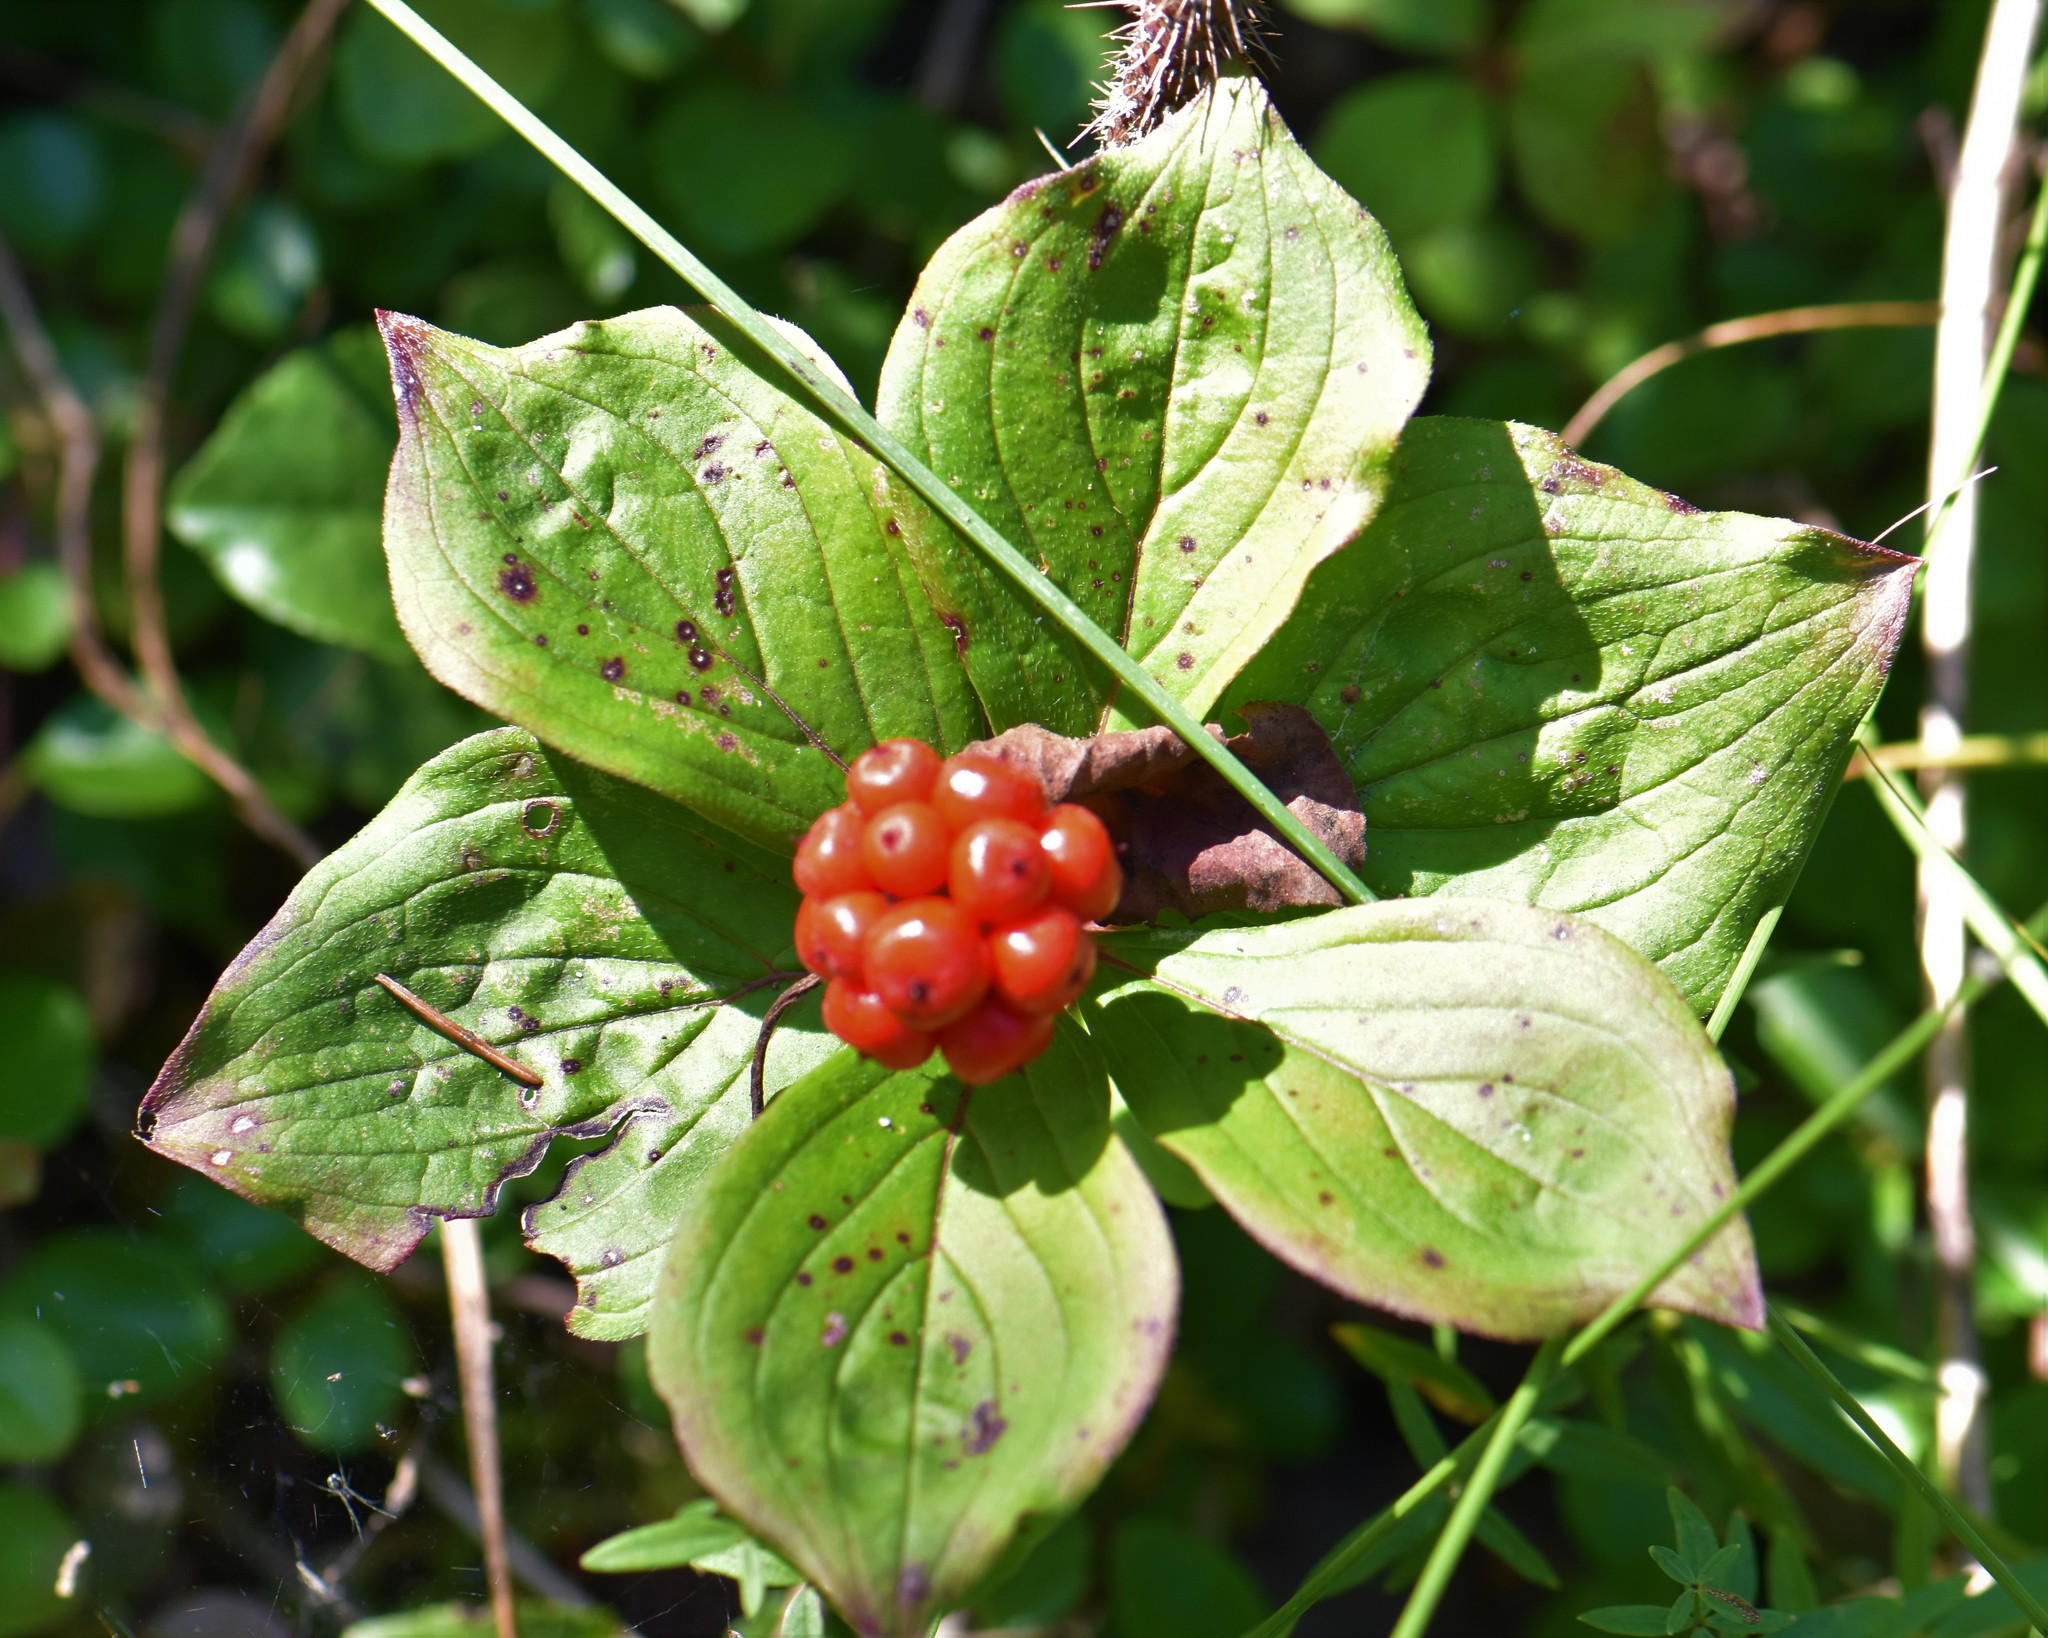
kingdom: Plantae
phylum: Tracheophyta
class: Magnoliopsida
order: Cornales
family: Cornaceae
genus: Cornus
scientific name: Cornus canadensis
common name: Creeping dogwood
